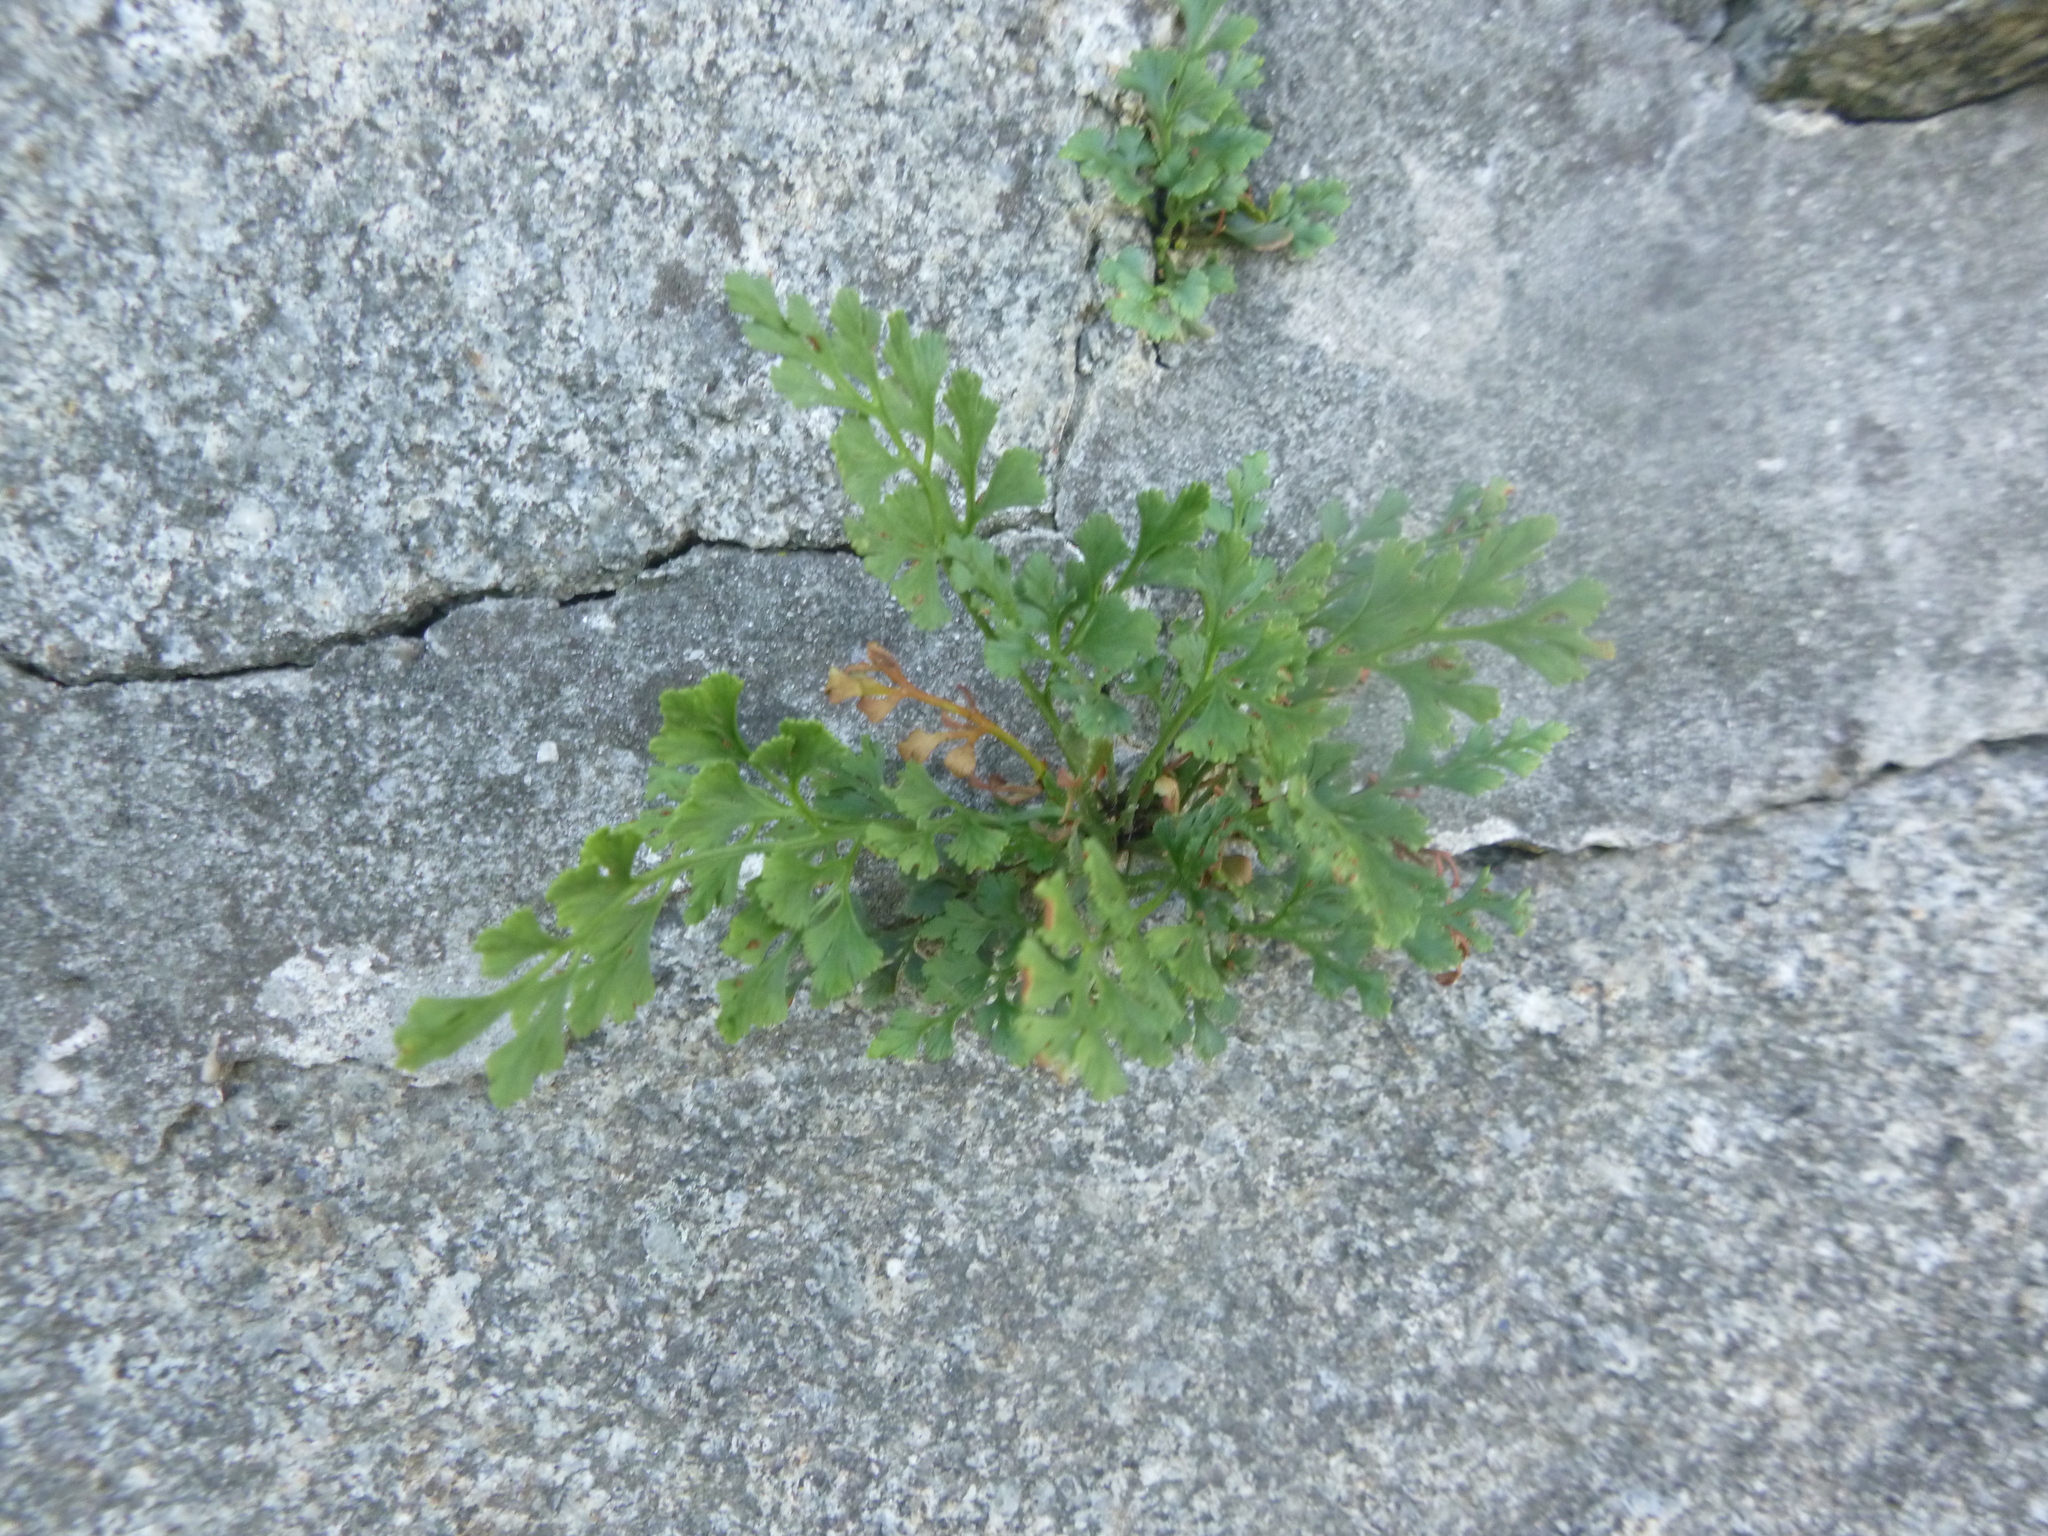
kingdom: Plantae
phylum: Tracheophyta
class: Polypodiopsida
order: Polypodiales
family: Aspleniaceae
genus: Asplenium
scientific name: Asplenium ruta-muraria
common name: Wall-rue
